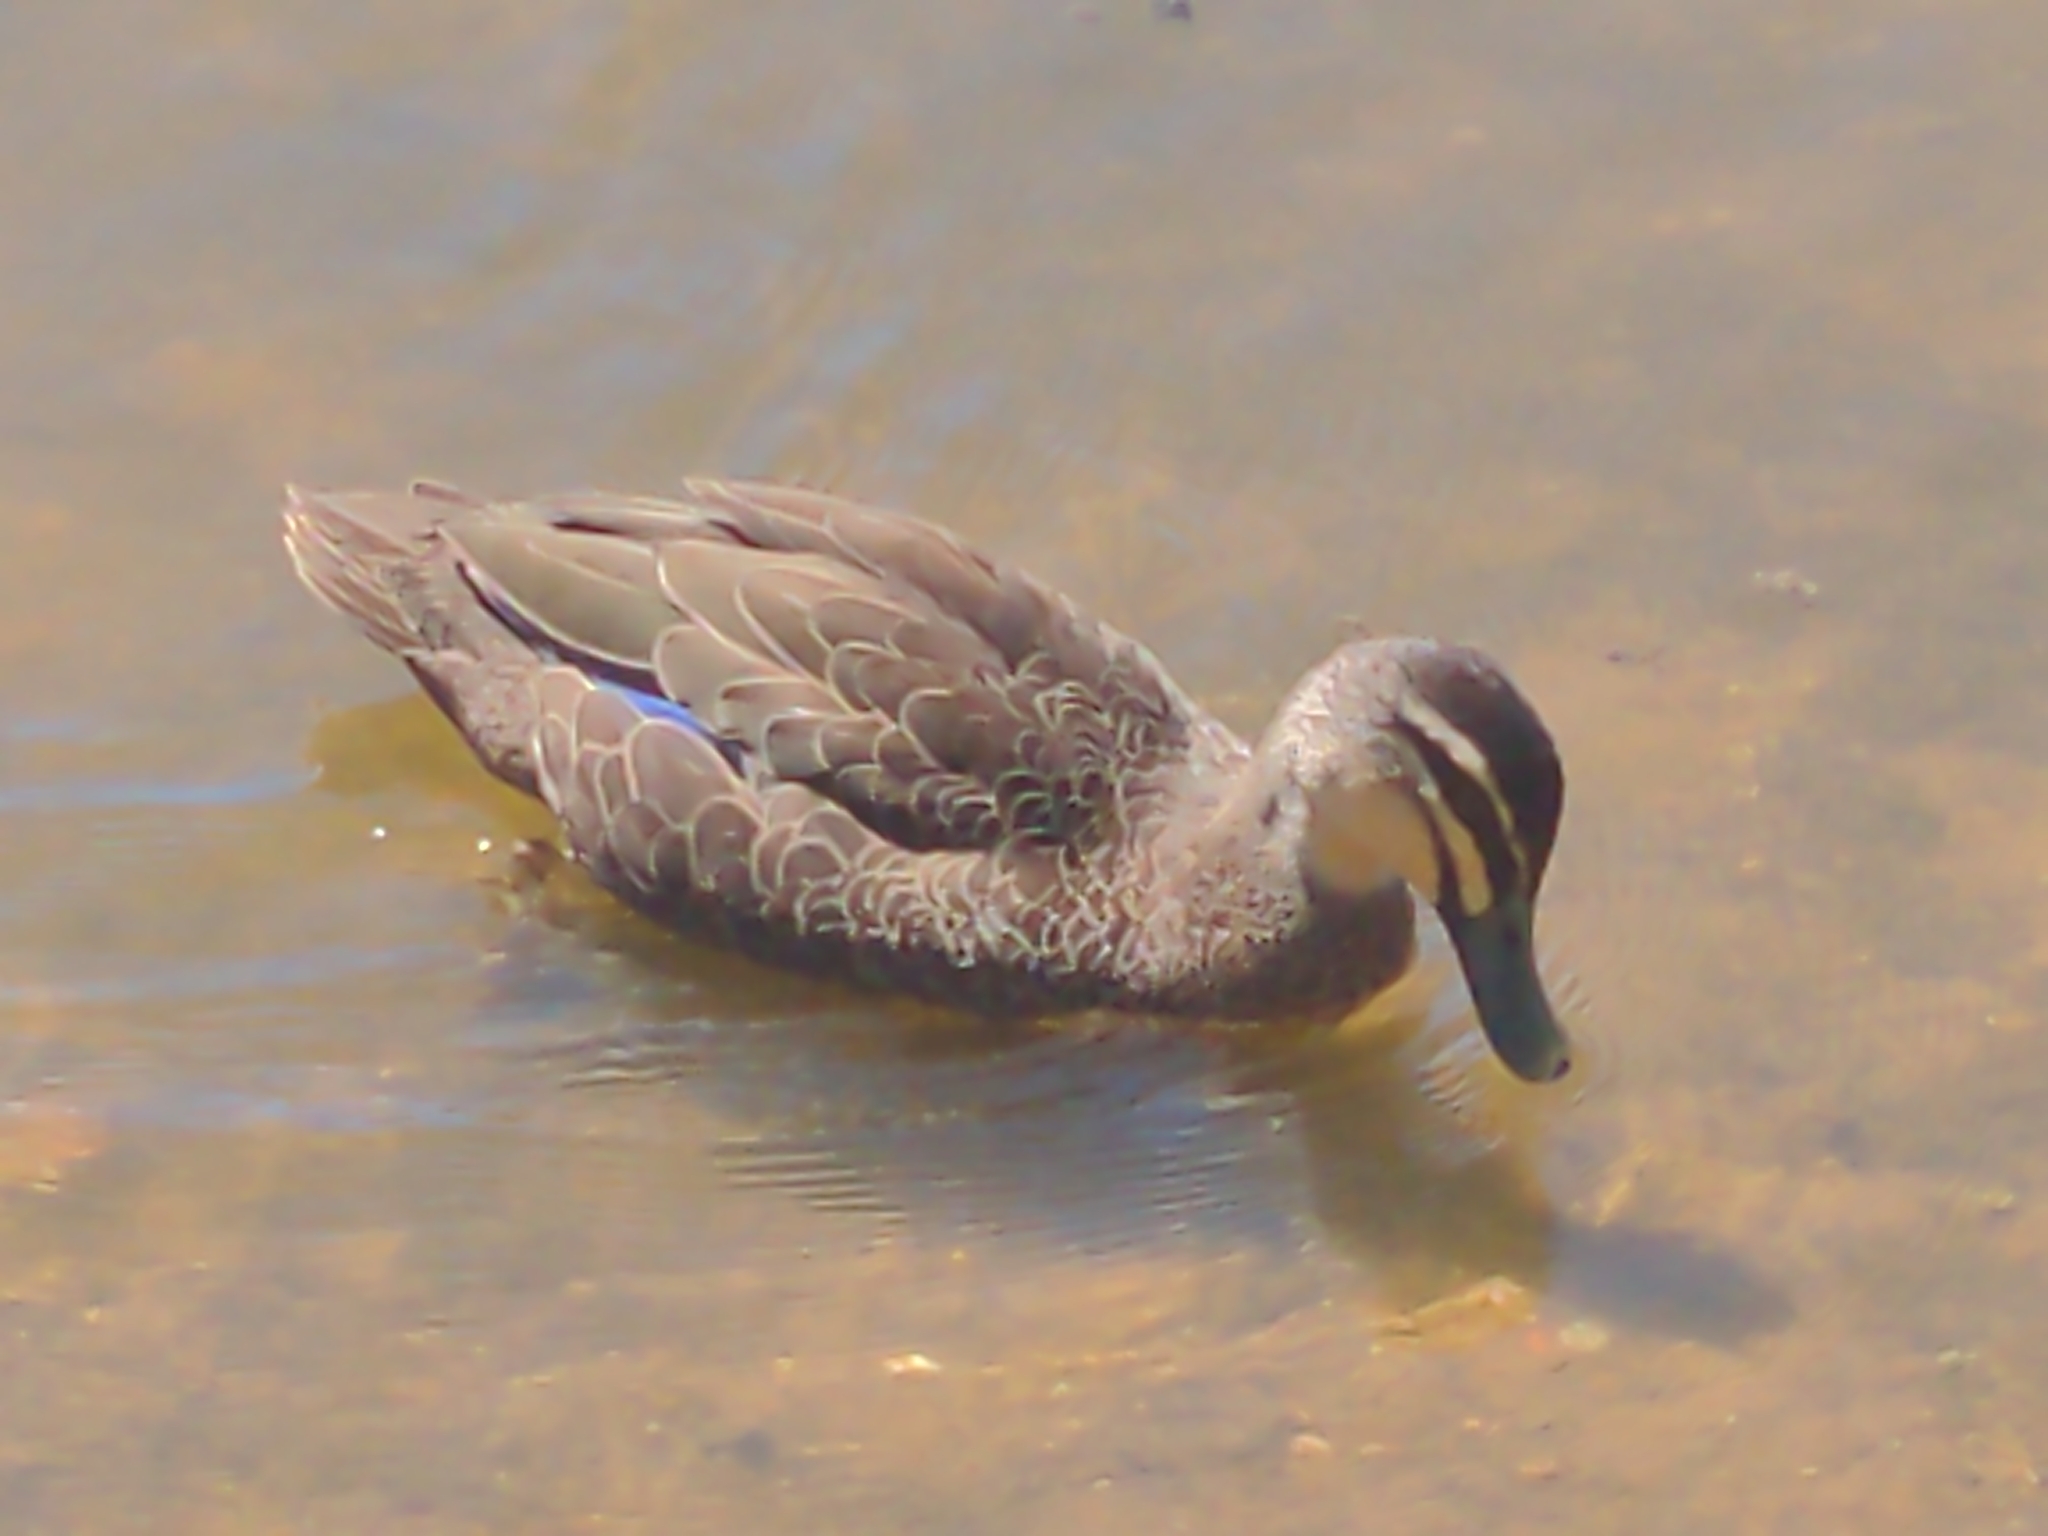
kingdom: Animalia
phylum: Chordata
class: Aves
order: Anseriformes
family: Anatidae
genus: Anas
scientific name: Anas superciliosa
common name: Pacific black duck
